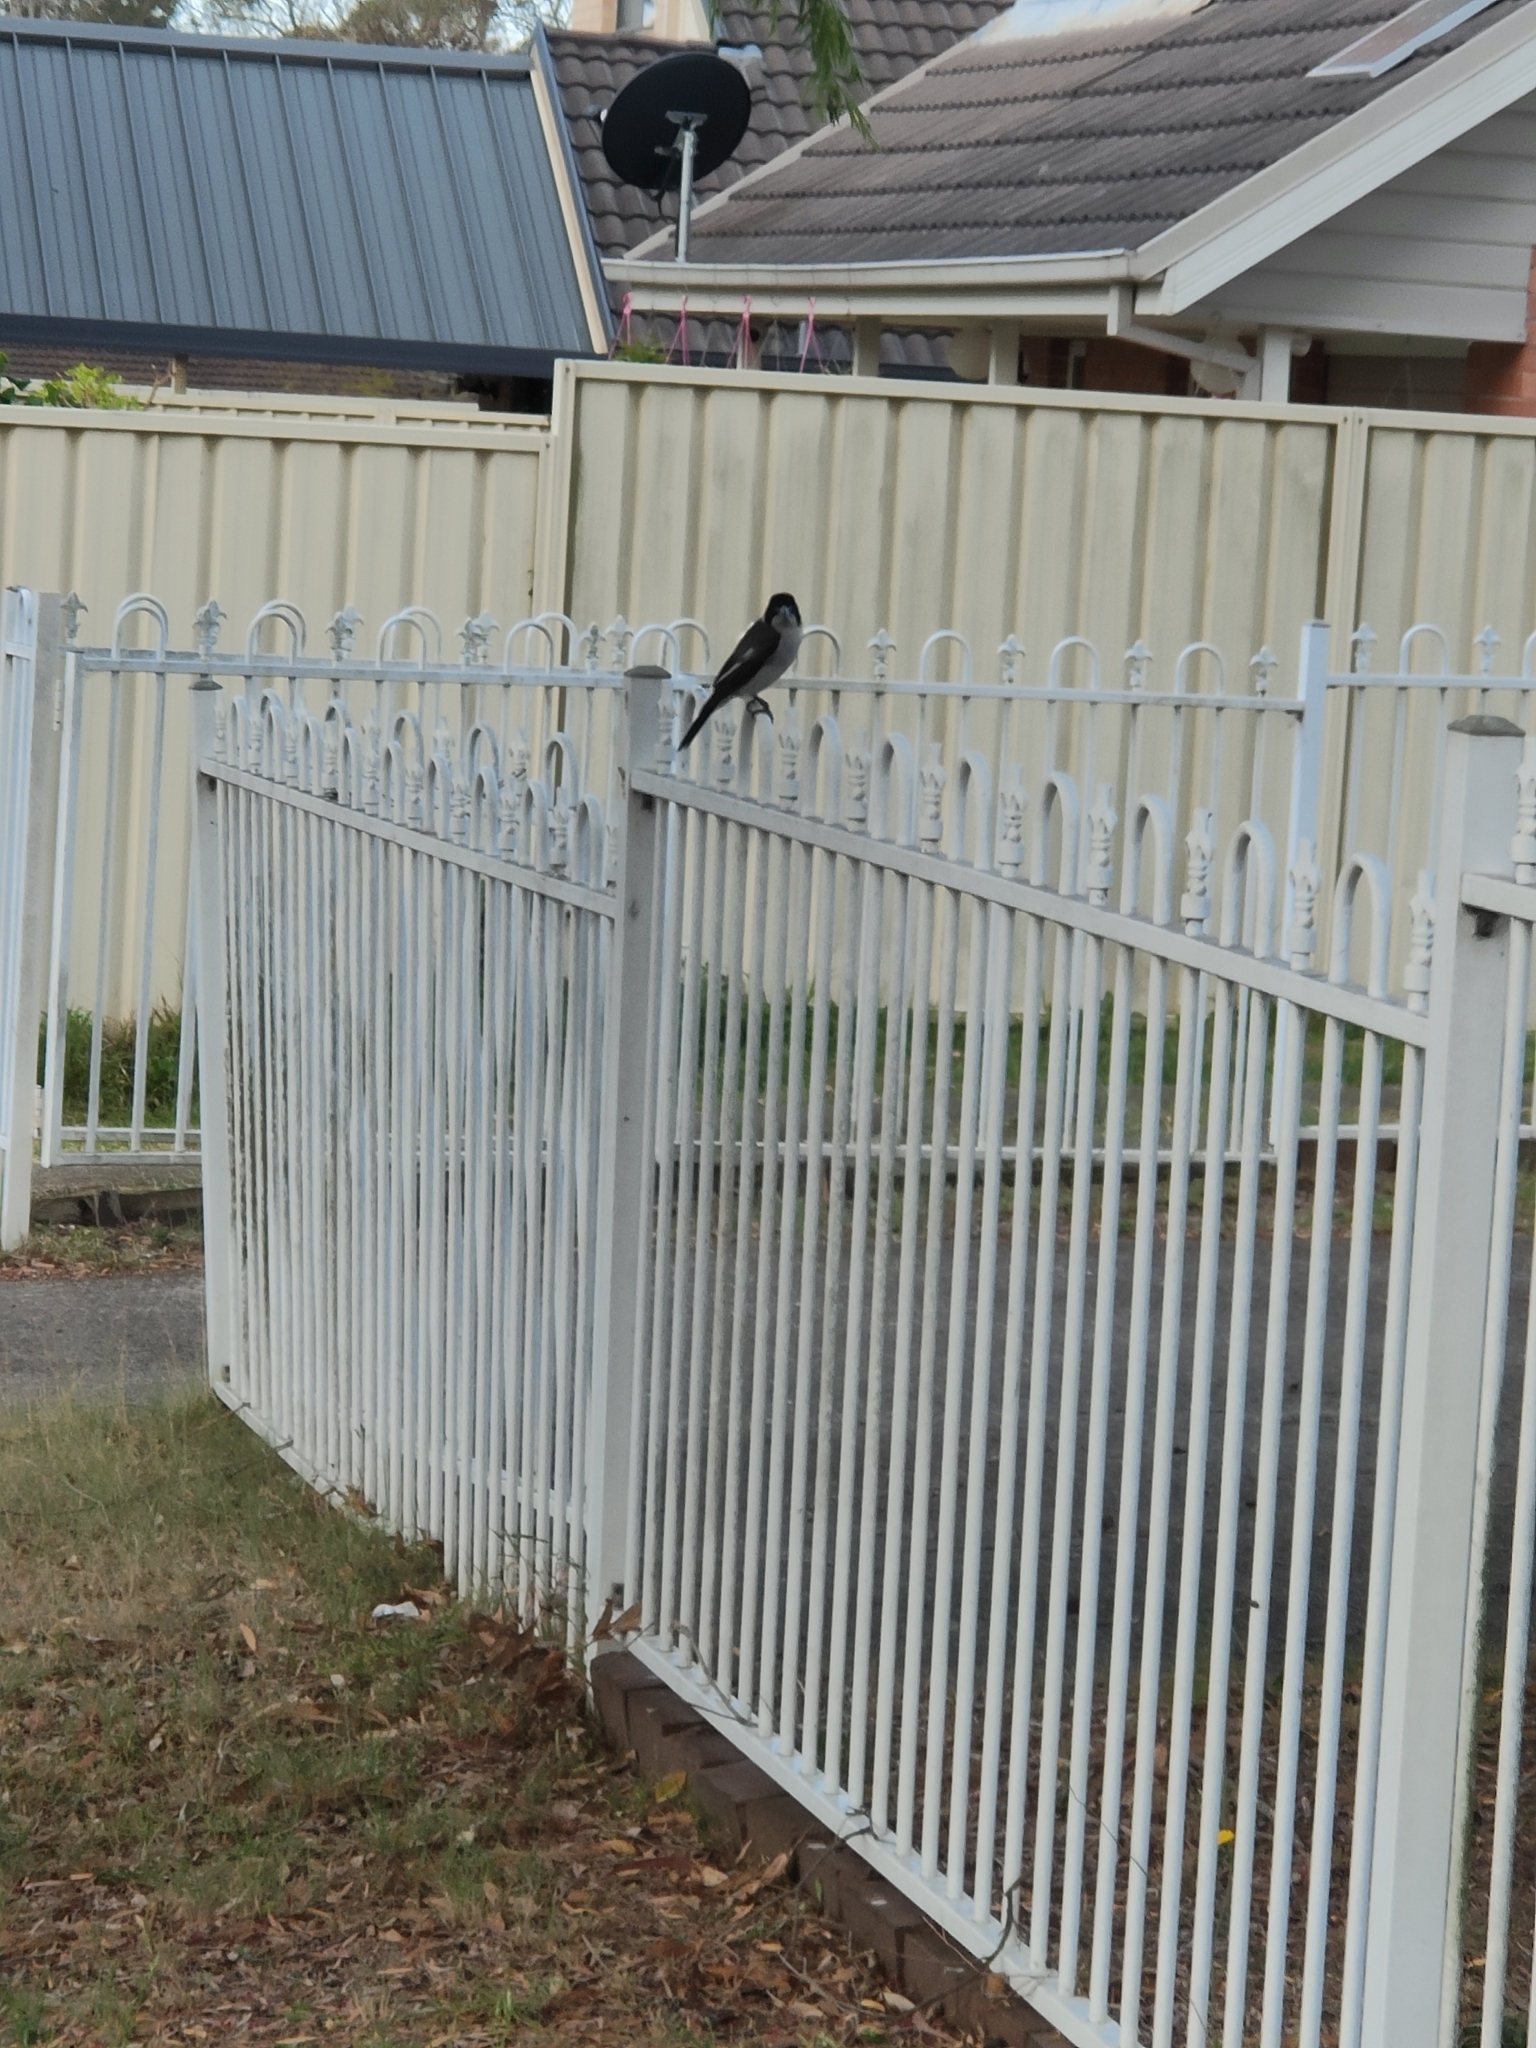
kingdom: Animalia
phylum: Chordata
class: Aves
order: Passeriformes
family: Cracticidae
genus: Cracticus
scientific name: Cracticus torquatus
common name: Grey butcherbird
